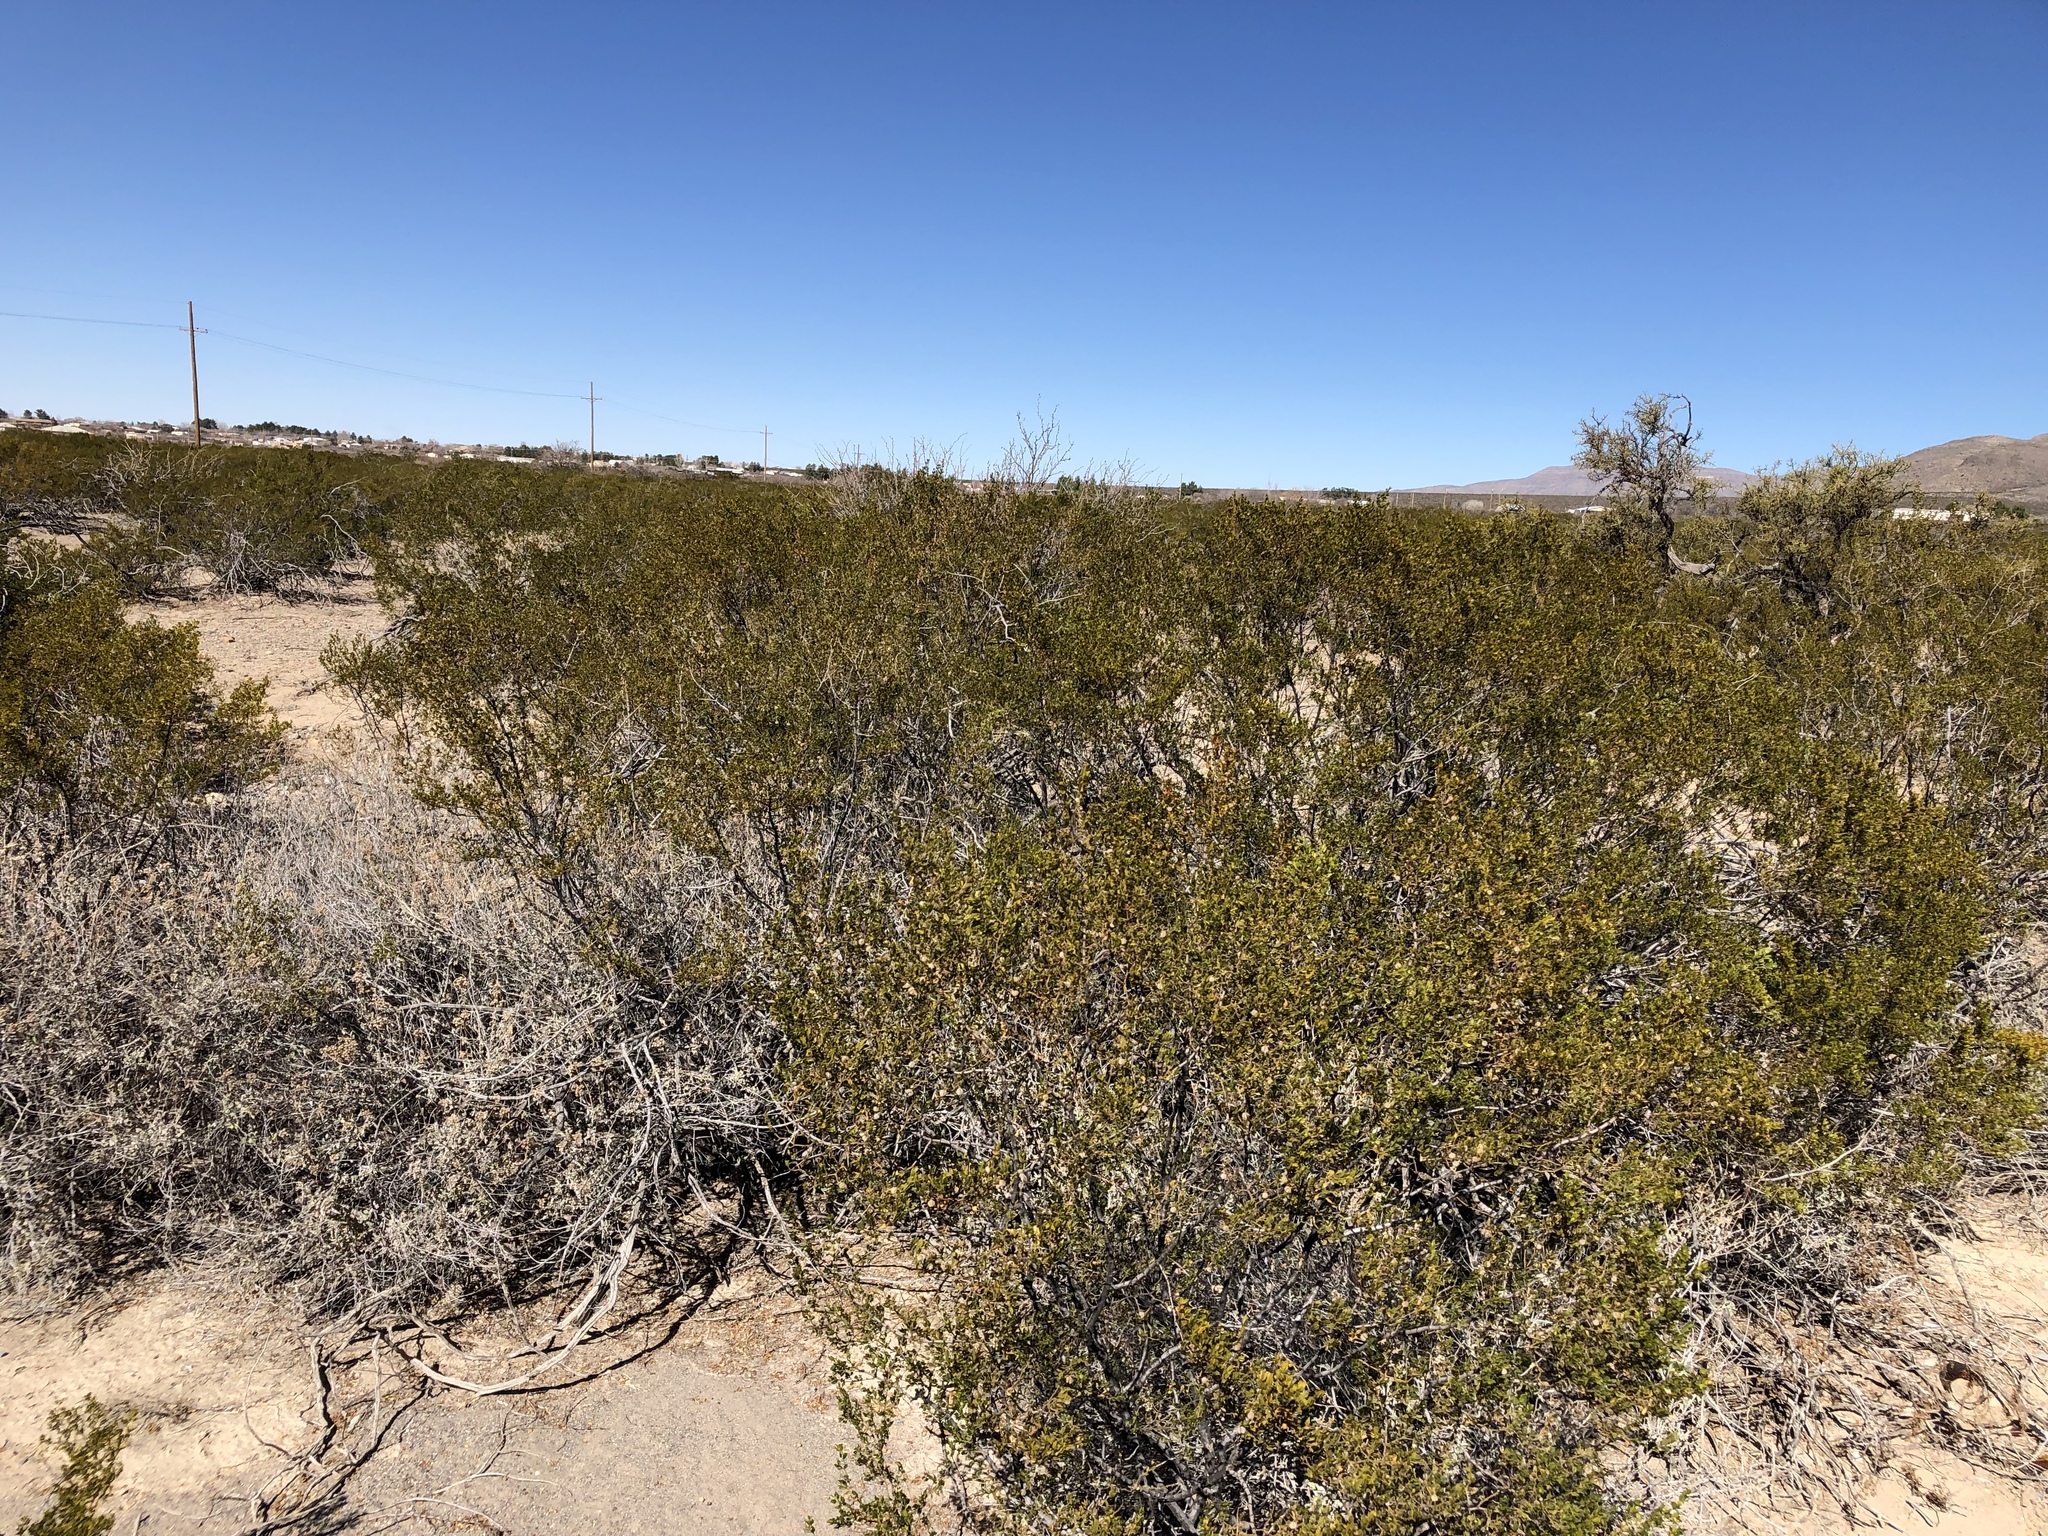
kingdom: Plantae
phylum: Tracheophyta
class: Magnoliopsida
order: Zygophyllales
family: Zygophyllaceae
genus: Larrea
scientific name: Larrea tridentata
